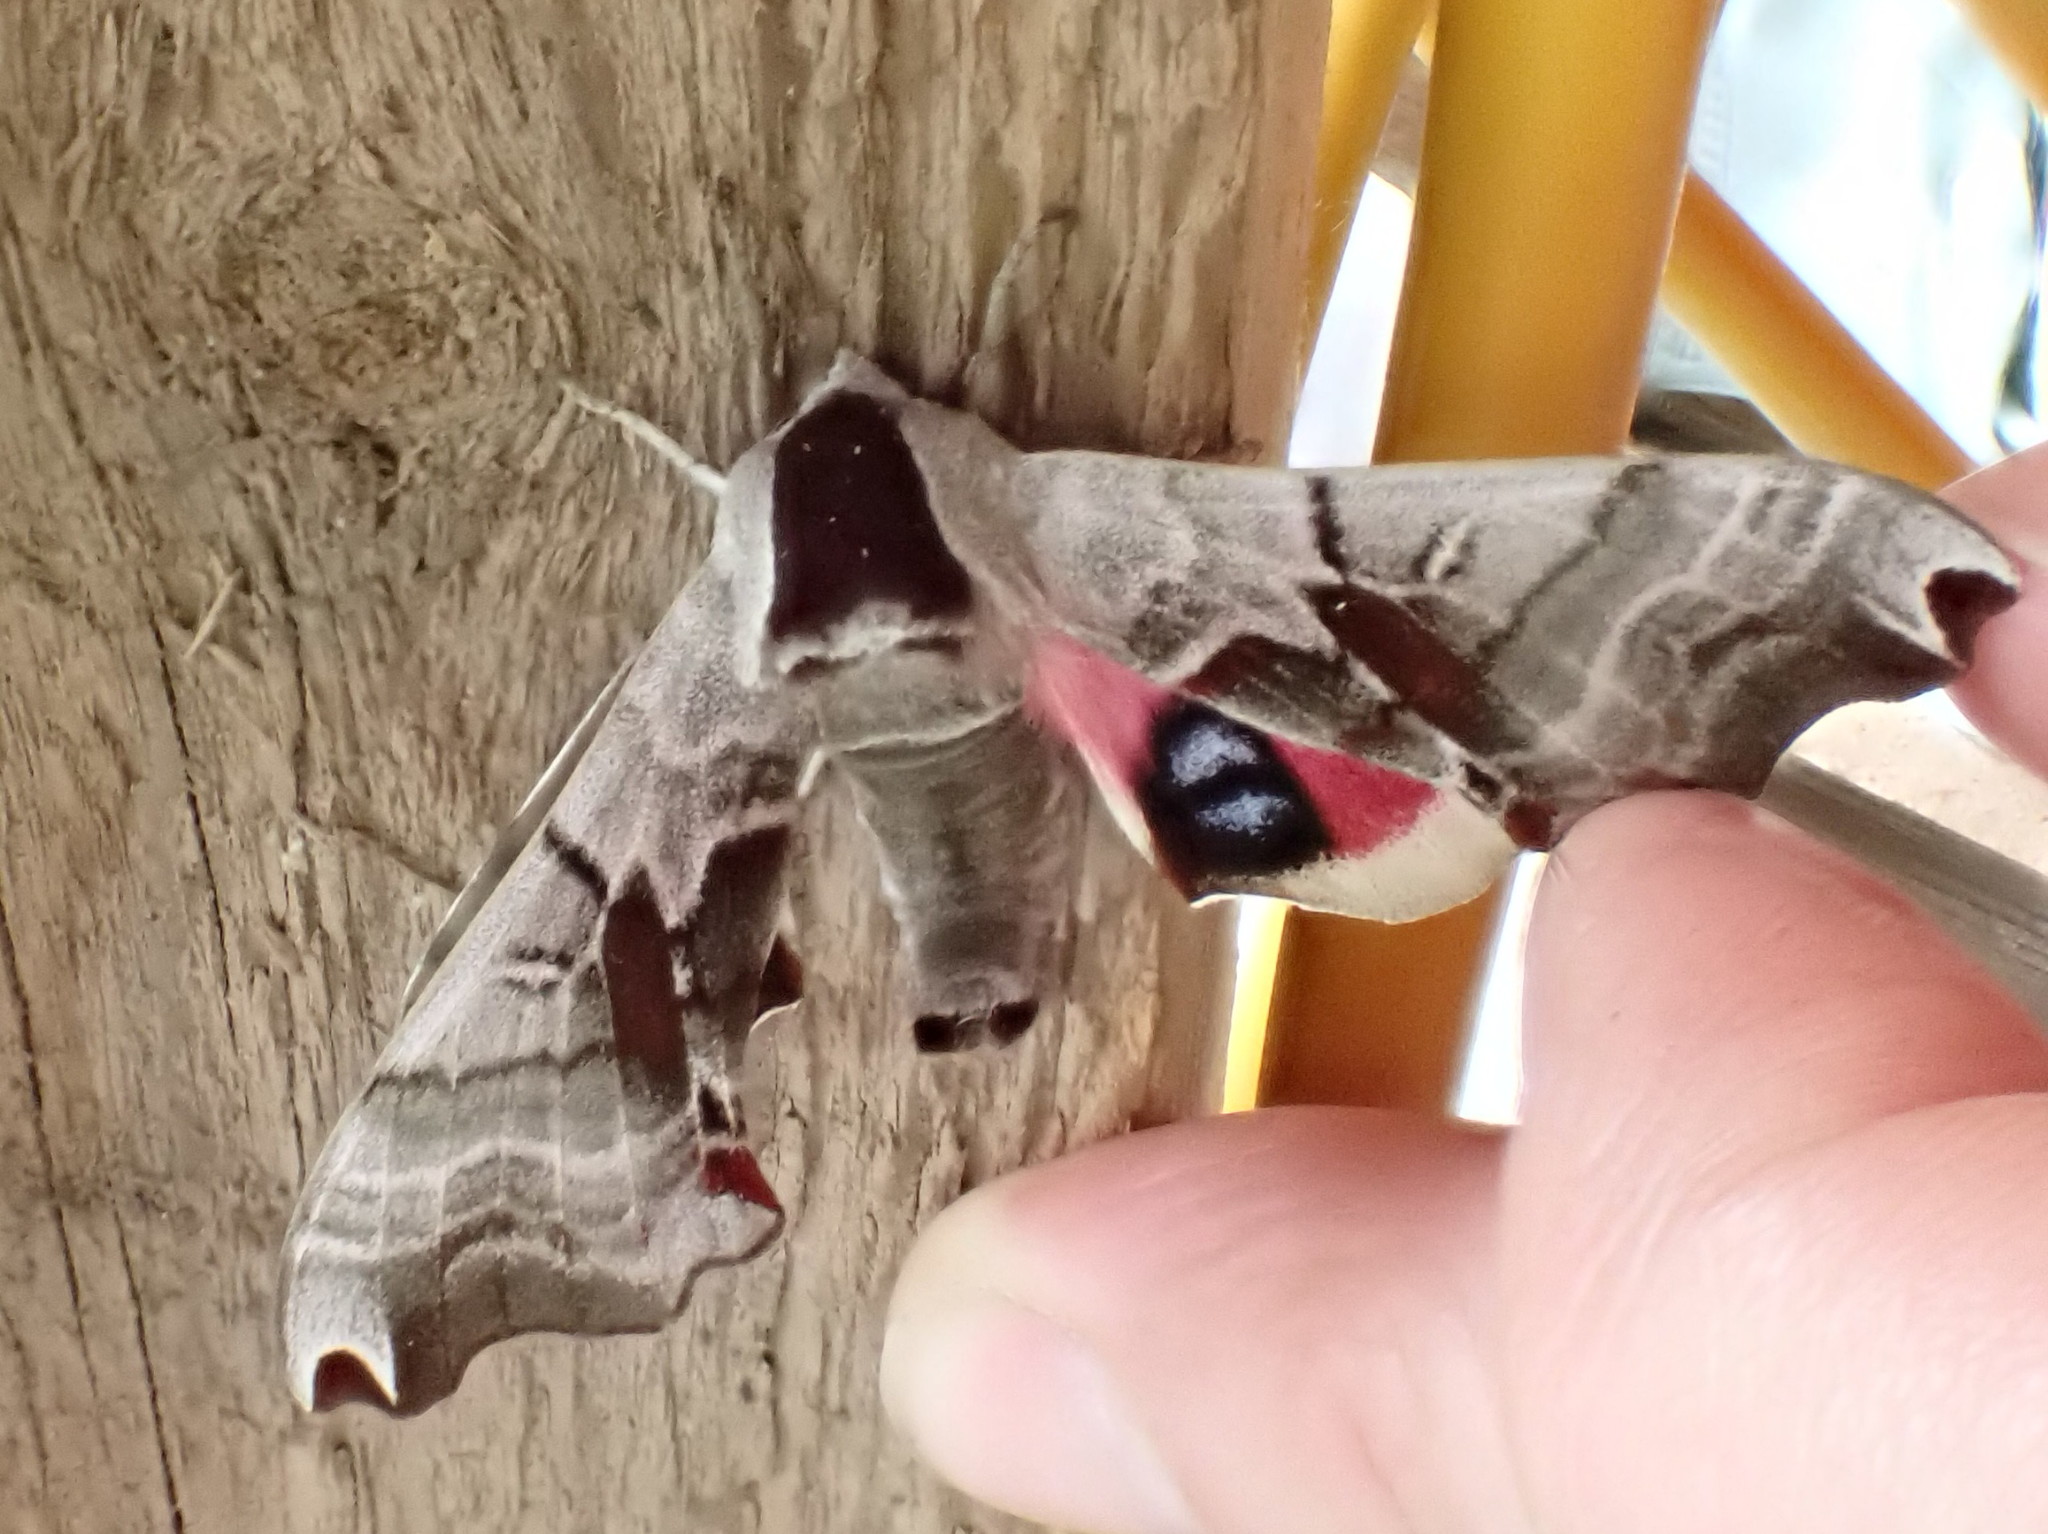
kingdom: Animalia
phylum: Arthropoda
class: Insecta
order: Lepidoptera
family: Sphingidae
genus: Smerinthus
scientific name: Smerinthus jamaicensis
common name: Twin spotted sphinx
